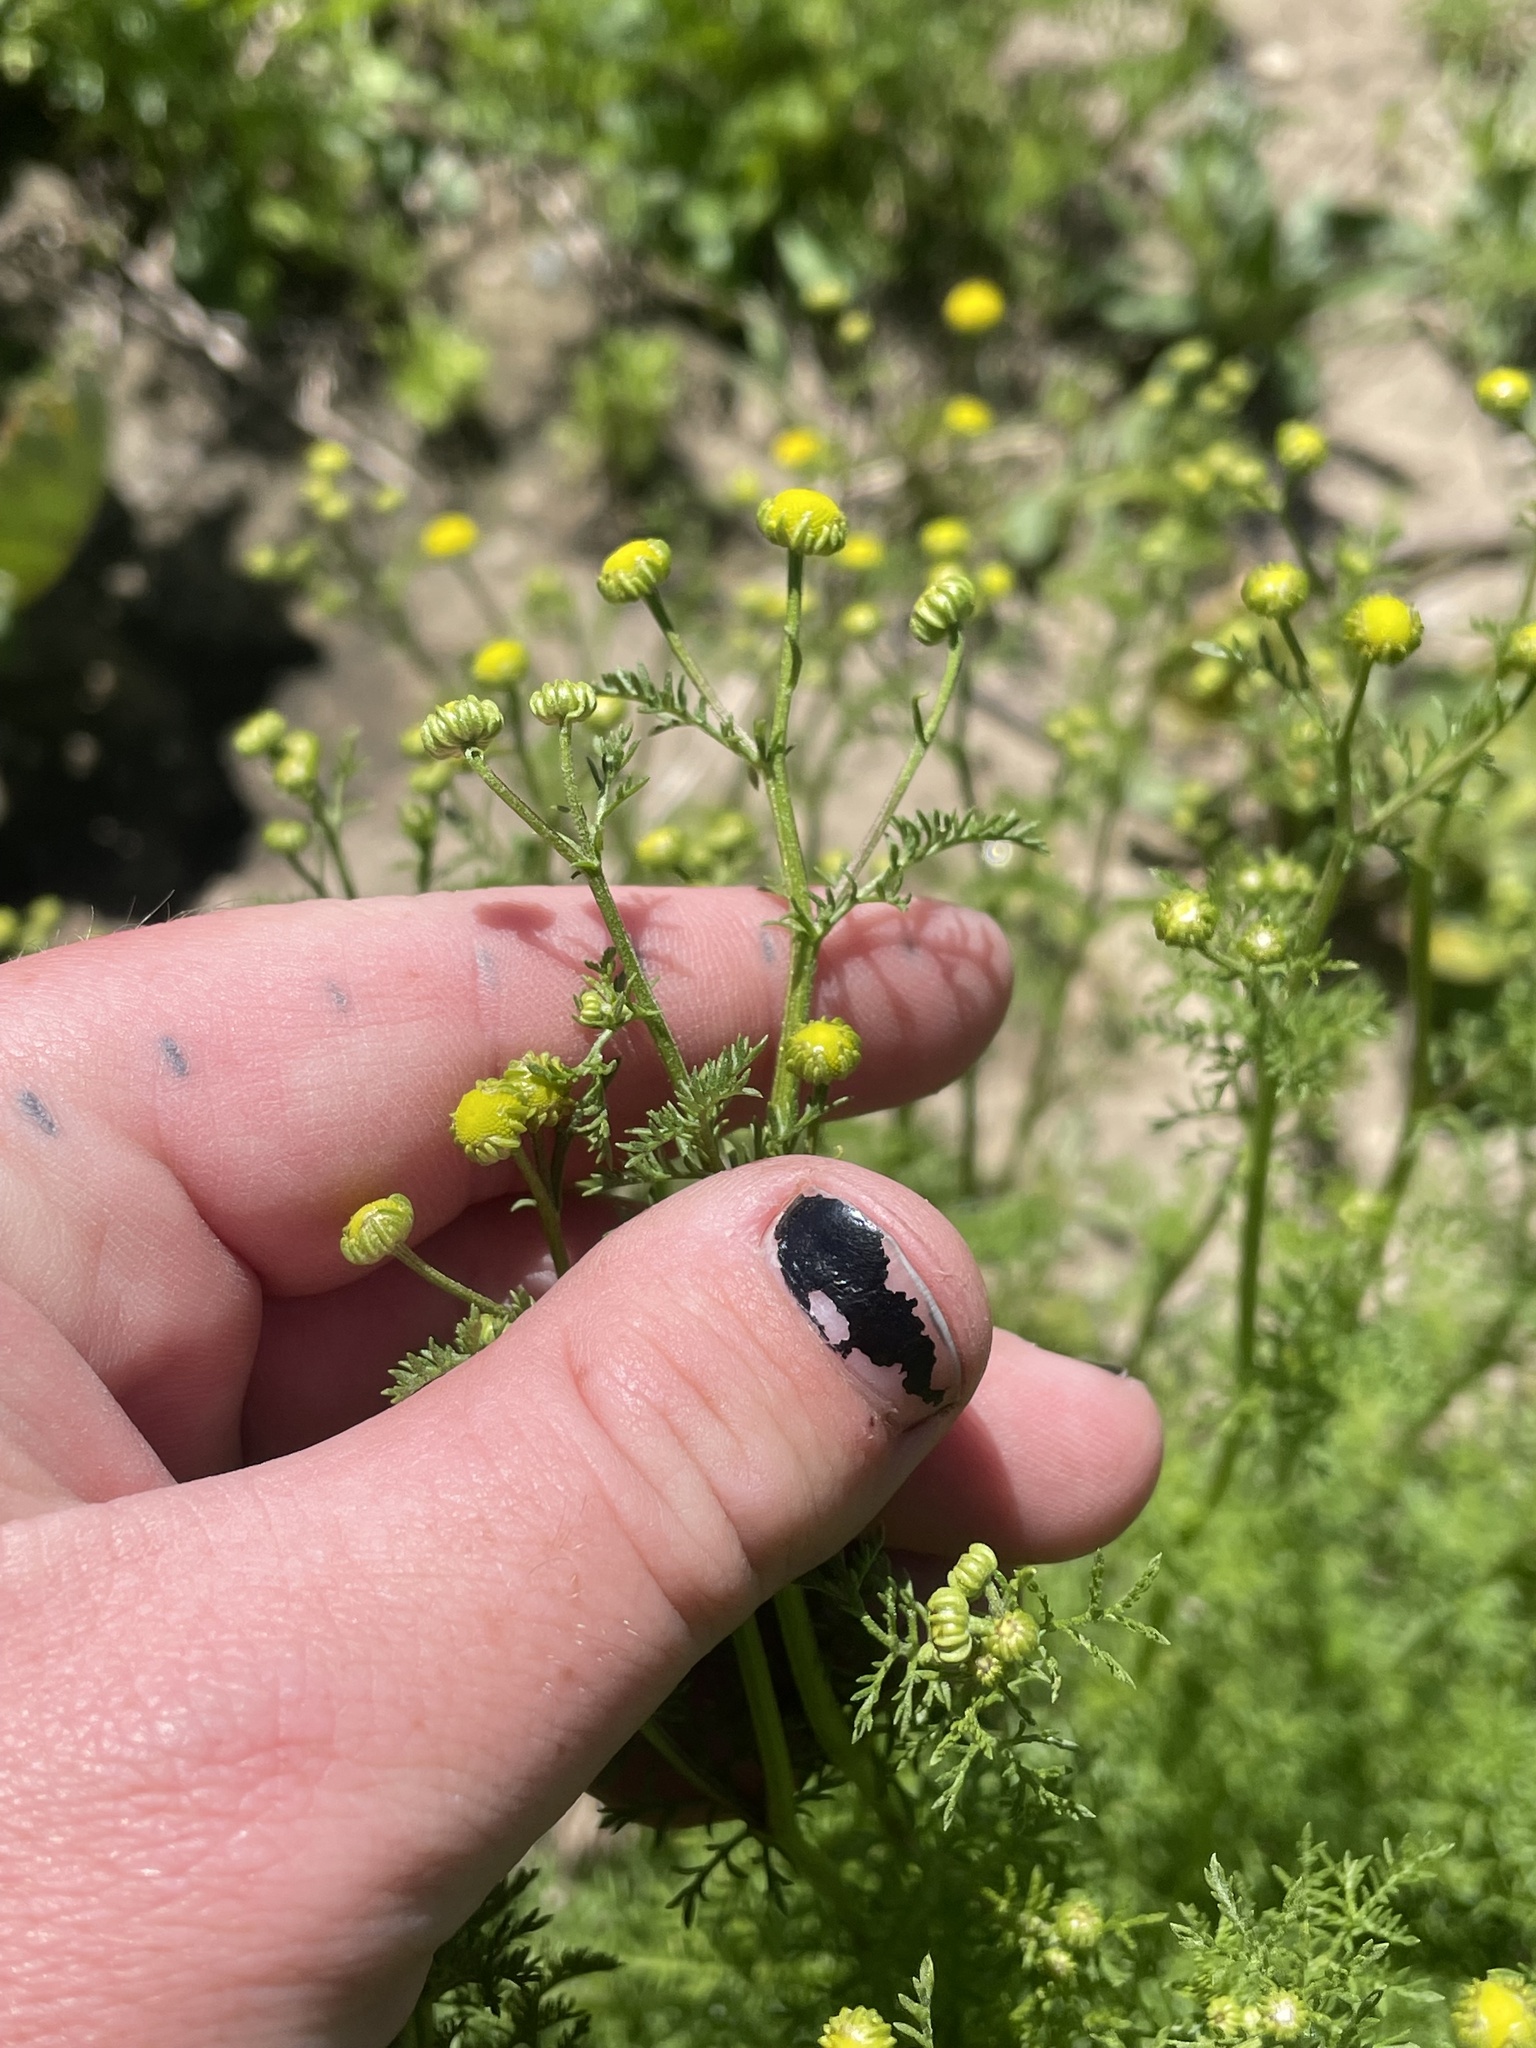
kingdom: Plantae
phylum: Tracheophyta
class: Magnoliopsida
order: Asterales
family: Asteraceae
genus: Oncosiphon
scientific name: Oncosiphon pilulifer
